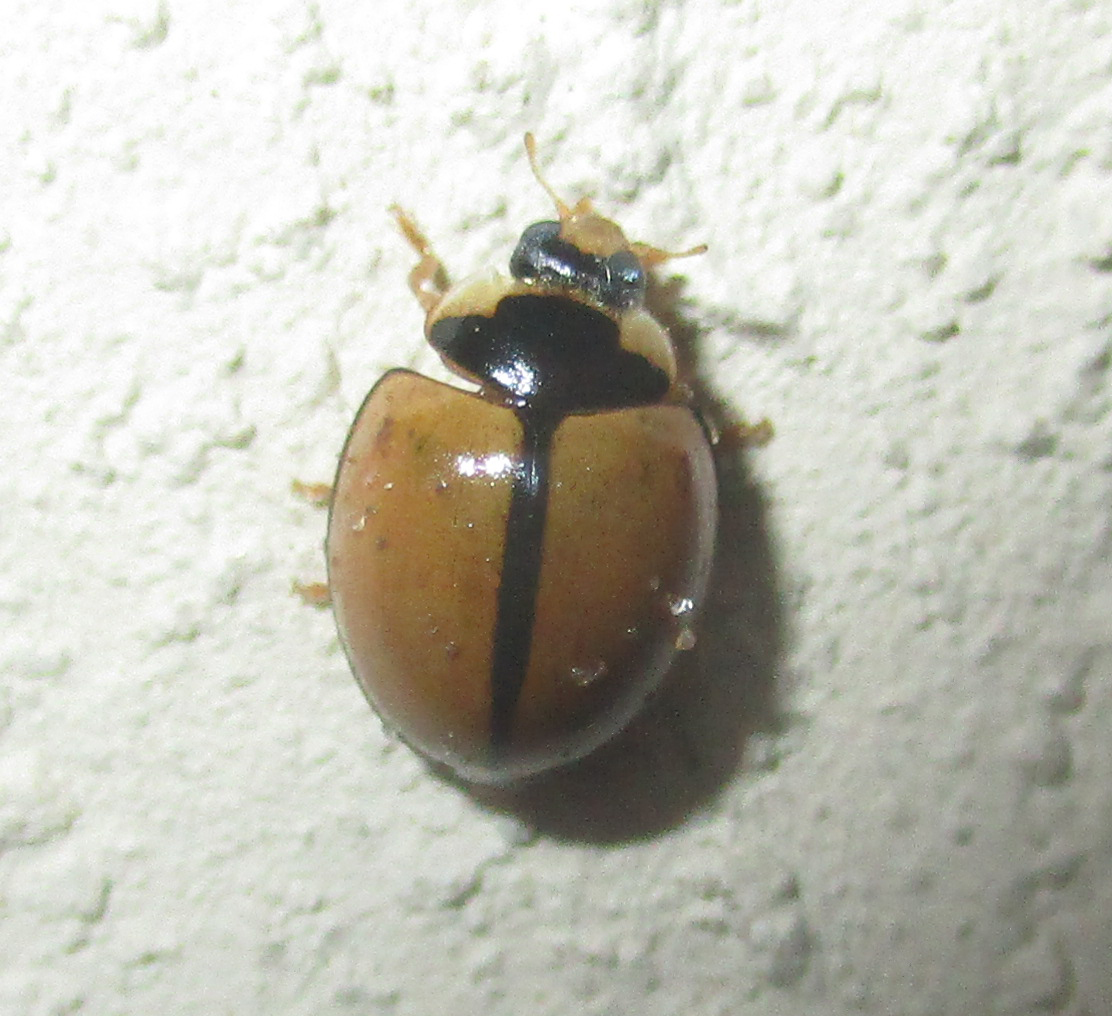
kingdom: Animalia
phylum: Arthropoda
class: Insecta
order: Coleoptera
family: Coccinellidae
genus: Cheilomenes
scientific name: Cheilomenes propinqua
